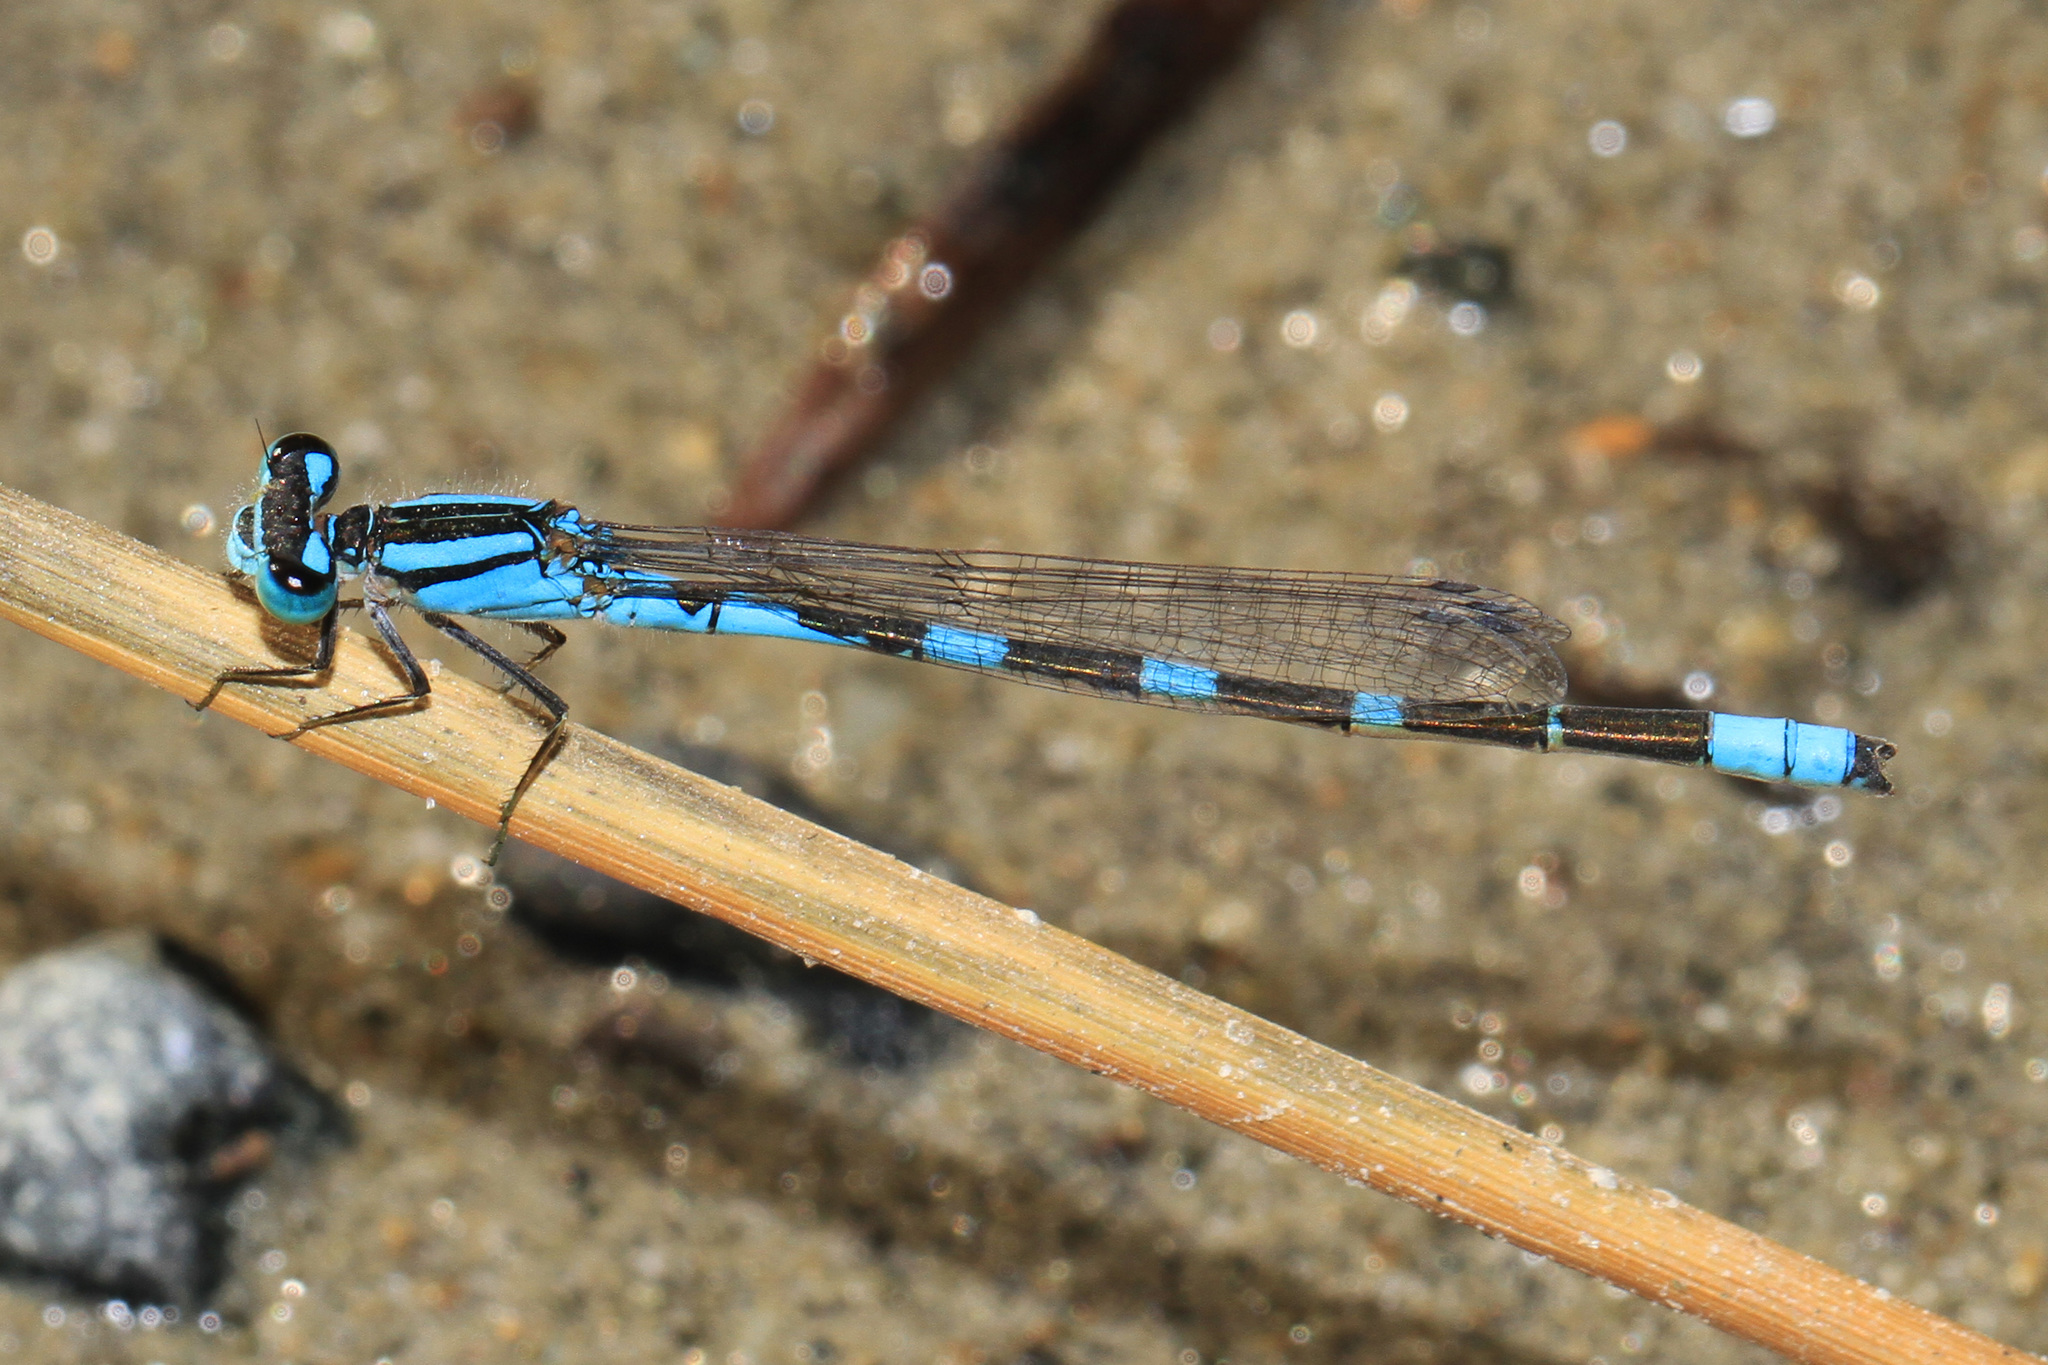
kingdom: Animalia
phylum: Arthropoda
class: Insecta
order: Odonata
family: Coenagrionidae
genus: Enallagma
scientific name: Enallagma carunculatum
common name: Tule bluet
